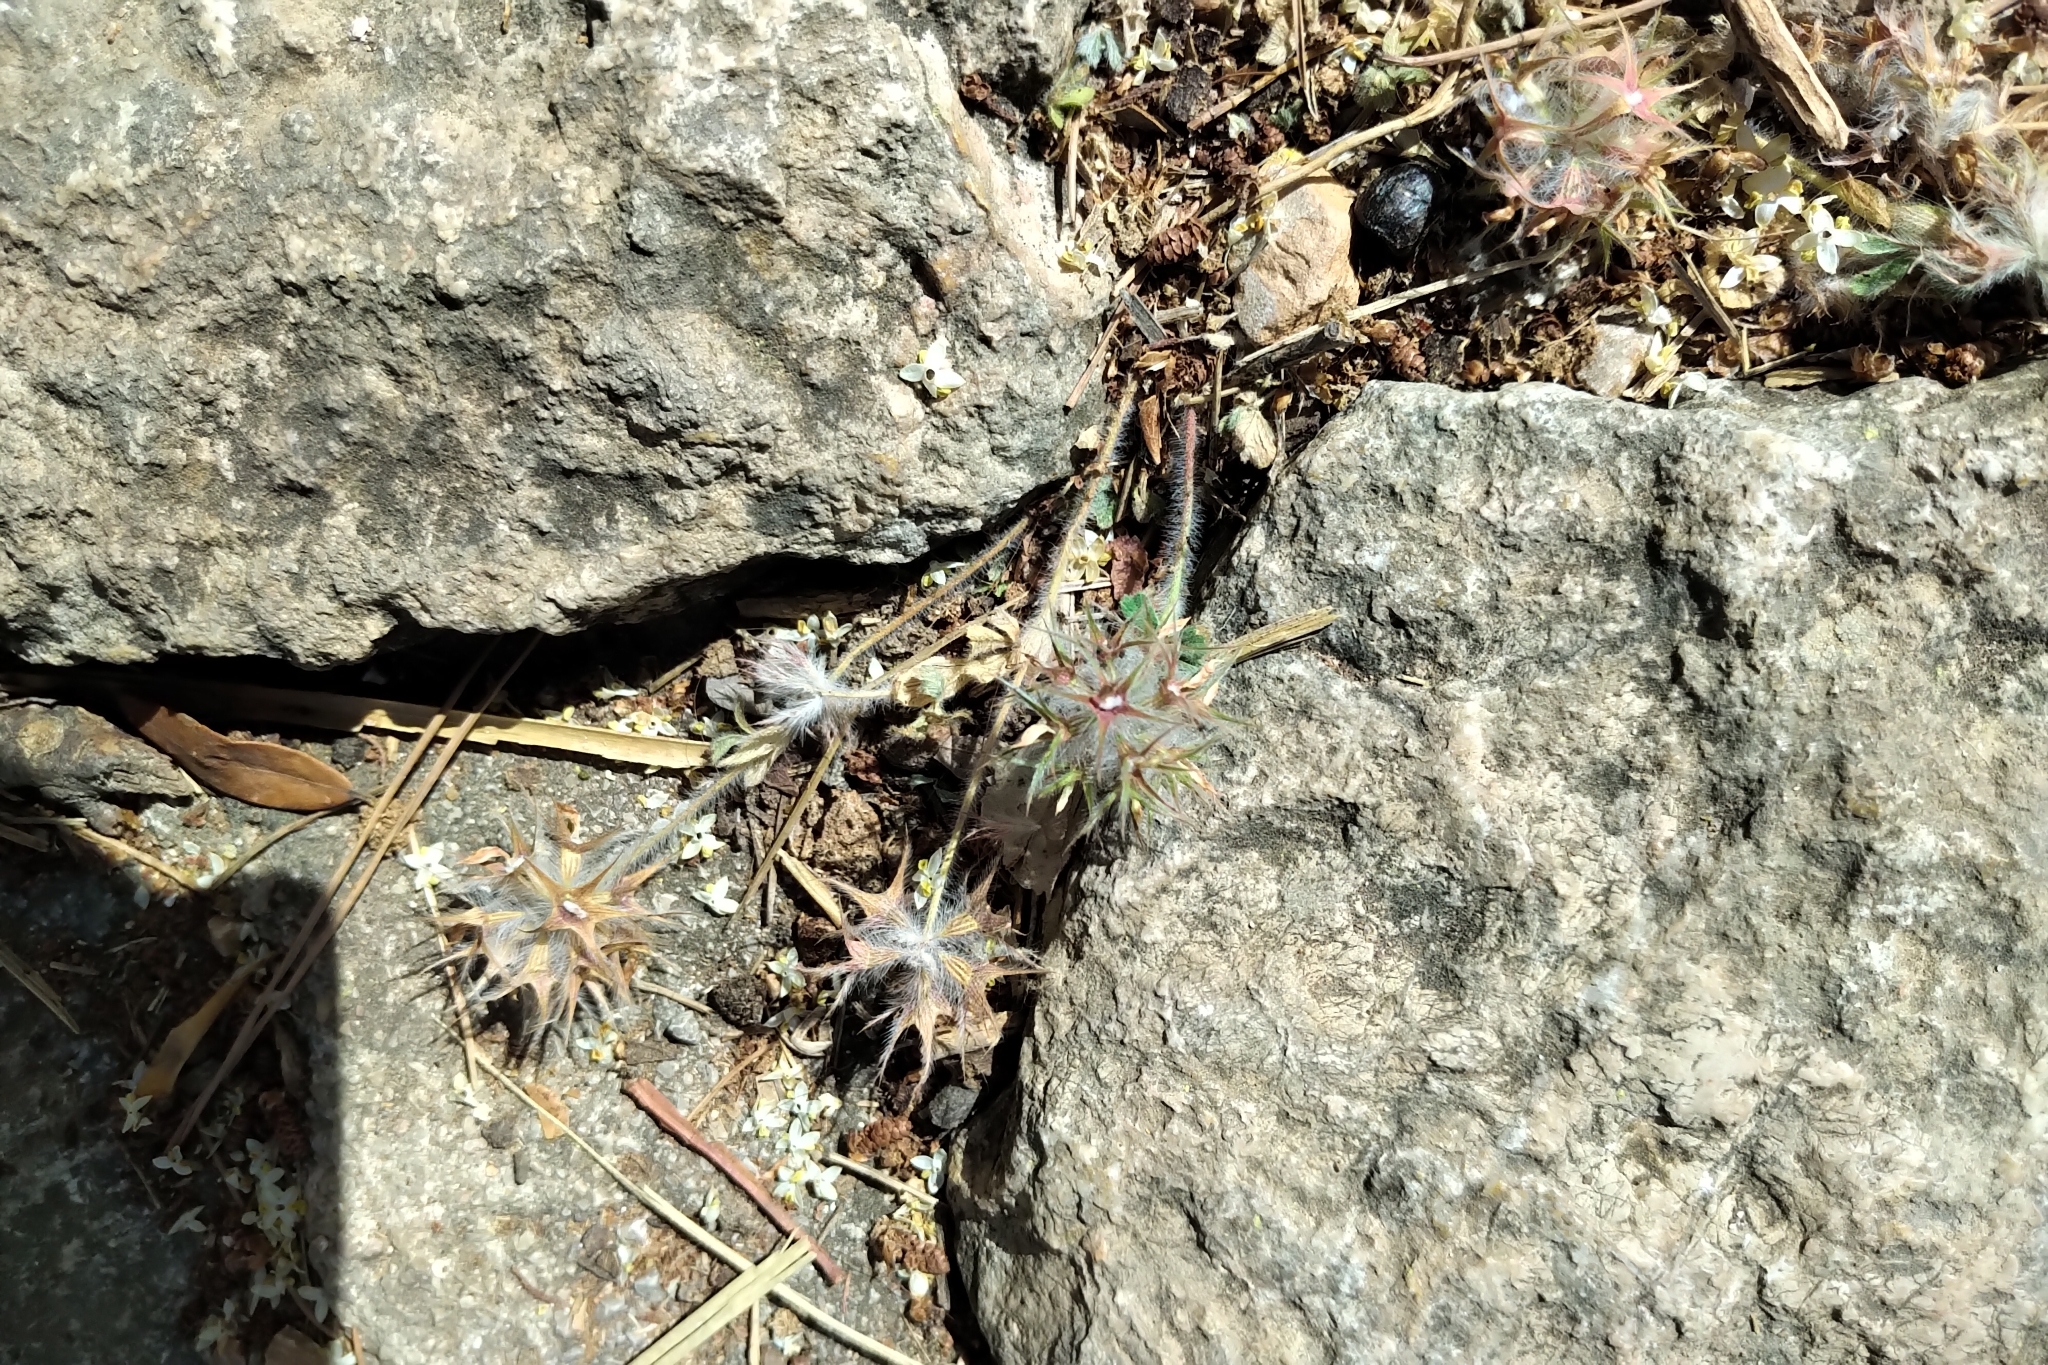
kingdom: Plantae
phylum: Tracheophyta
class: Magnoliopsida
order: Fabales
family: Fabaceae
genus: Trifolium
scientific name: Trifolium stellatum
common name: Starry clover
